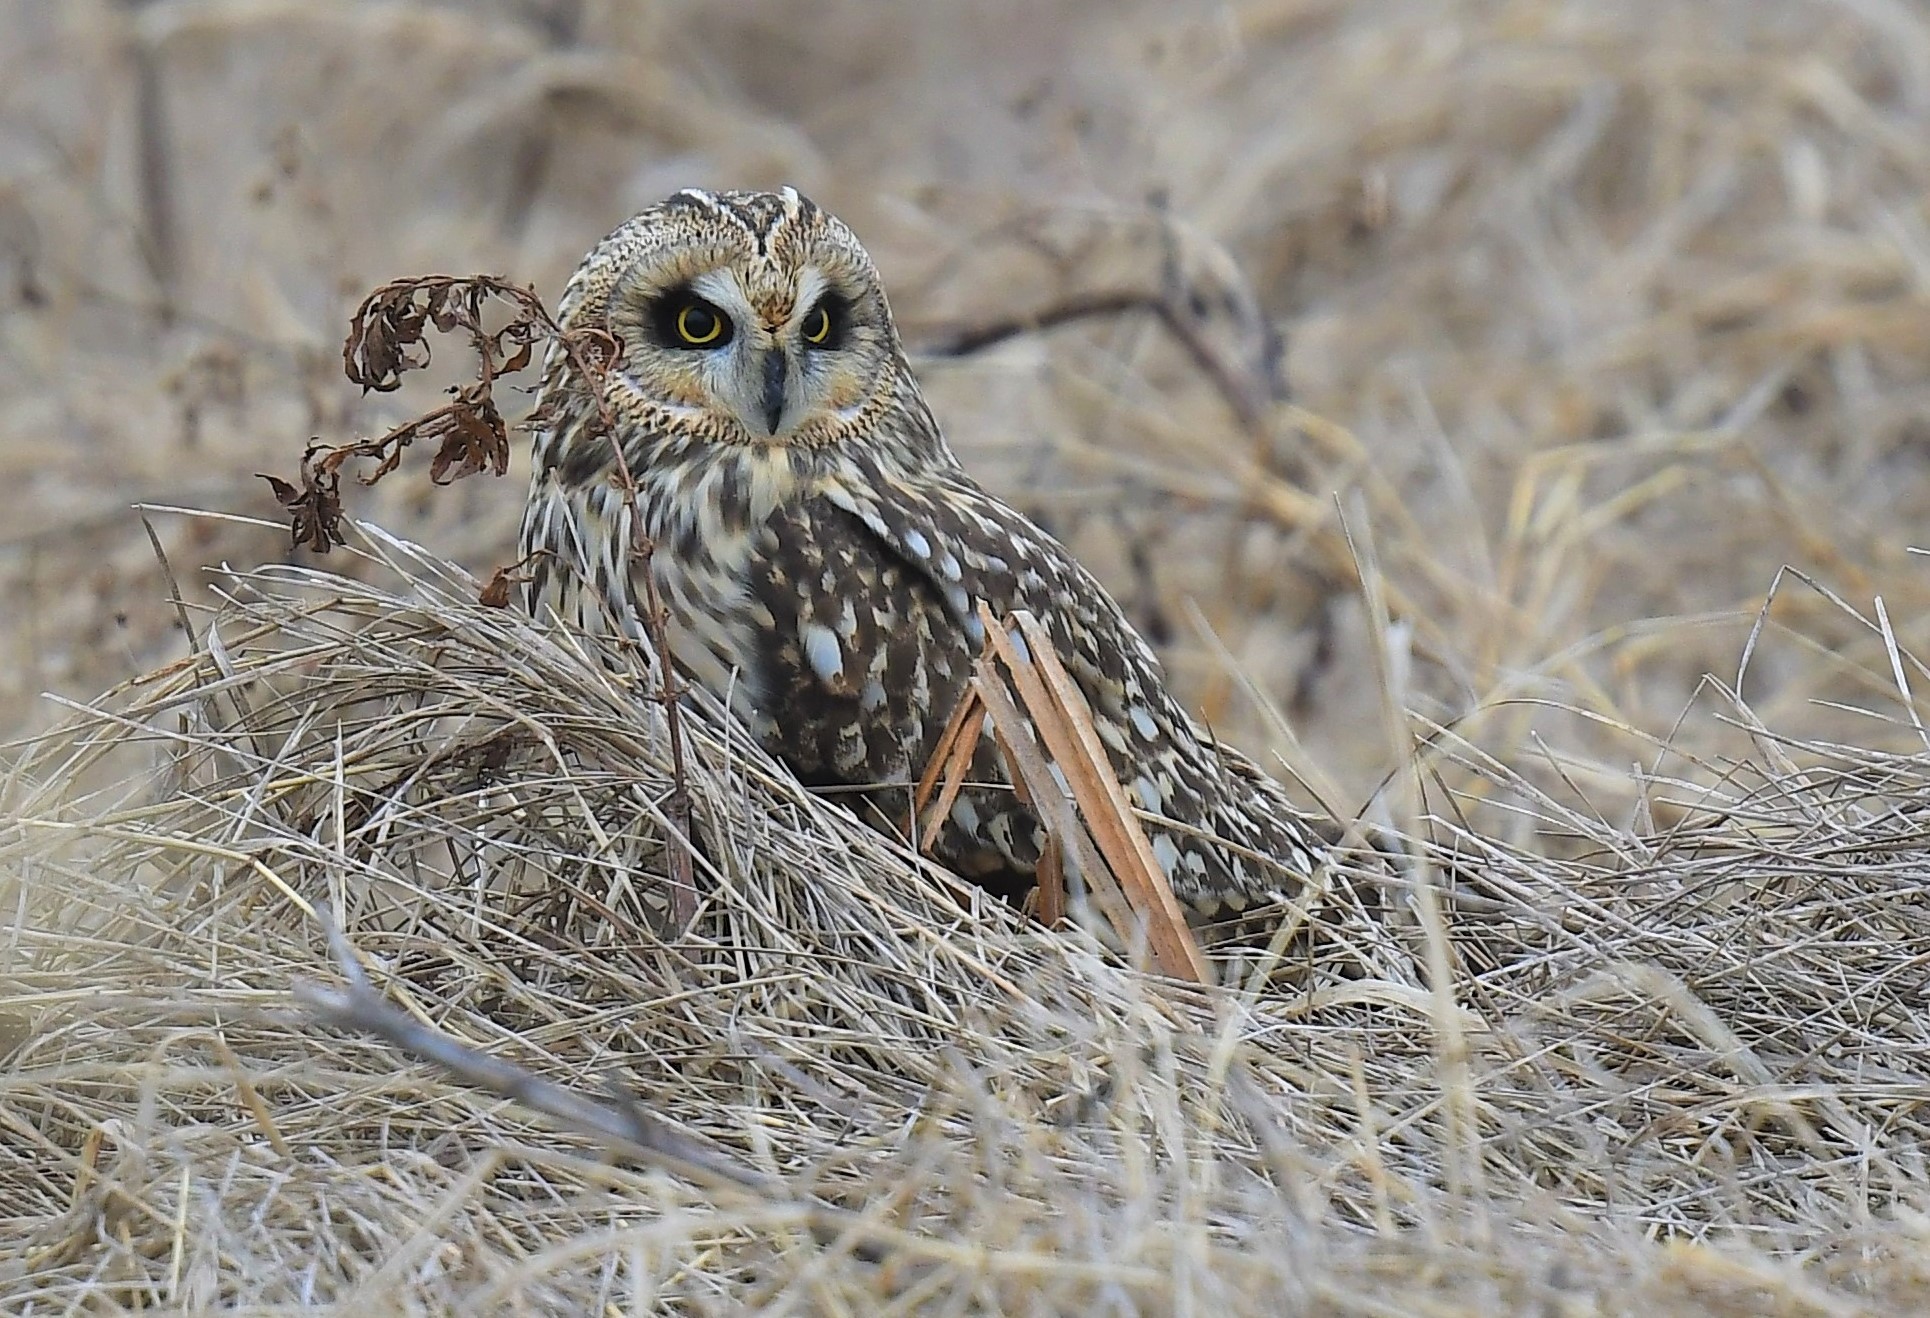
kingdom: Animalia
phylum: Chordata
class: Aves
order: Strigiformes
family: Strigidae
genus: Asio
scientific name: Asio flammeus
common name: Short-eared owl
